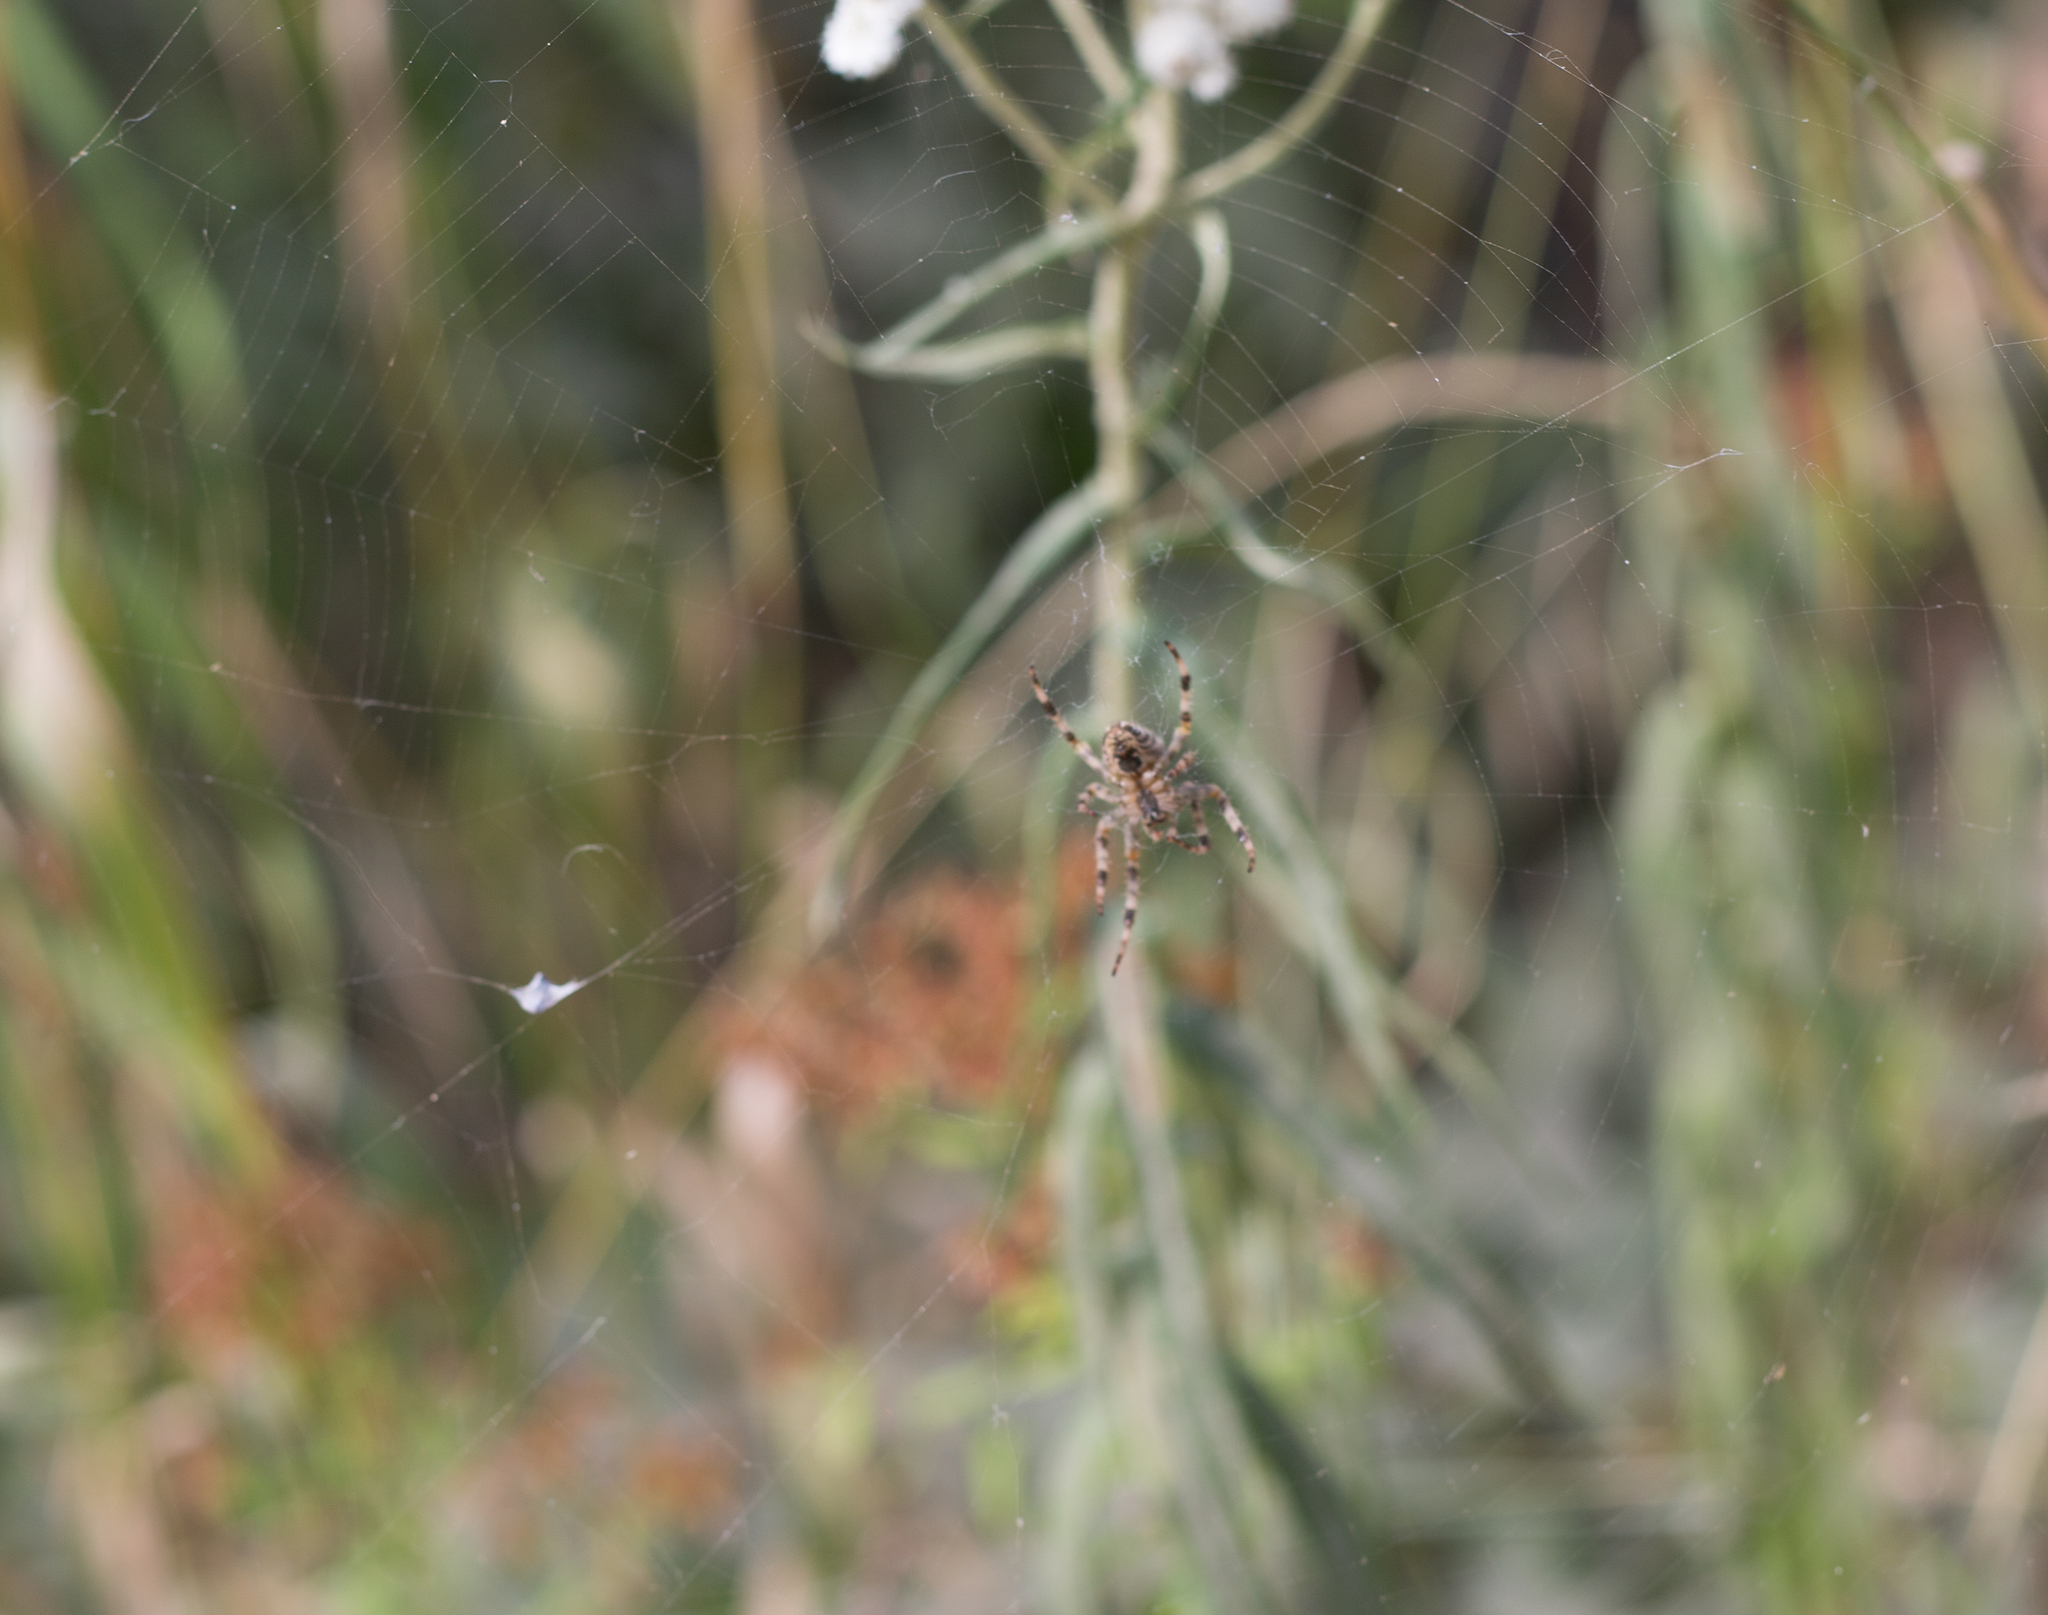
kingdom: Animalia
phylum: Arthropoda
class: Arachnida
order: Araneae
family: Araneidae
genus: Araneus
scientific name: Araneus diadematus
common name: Cross orbweaver
